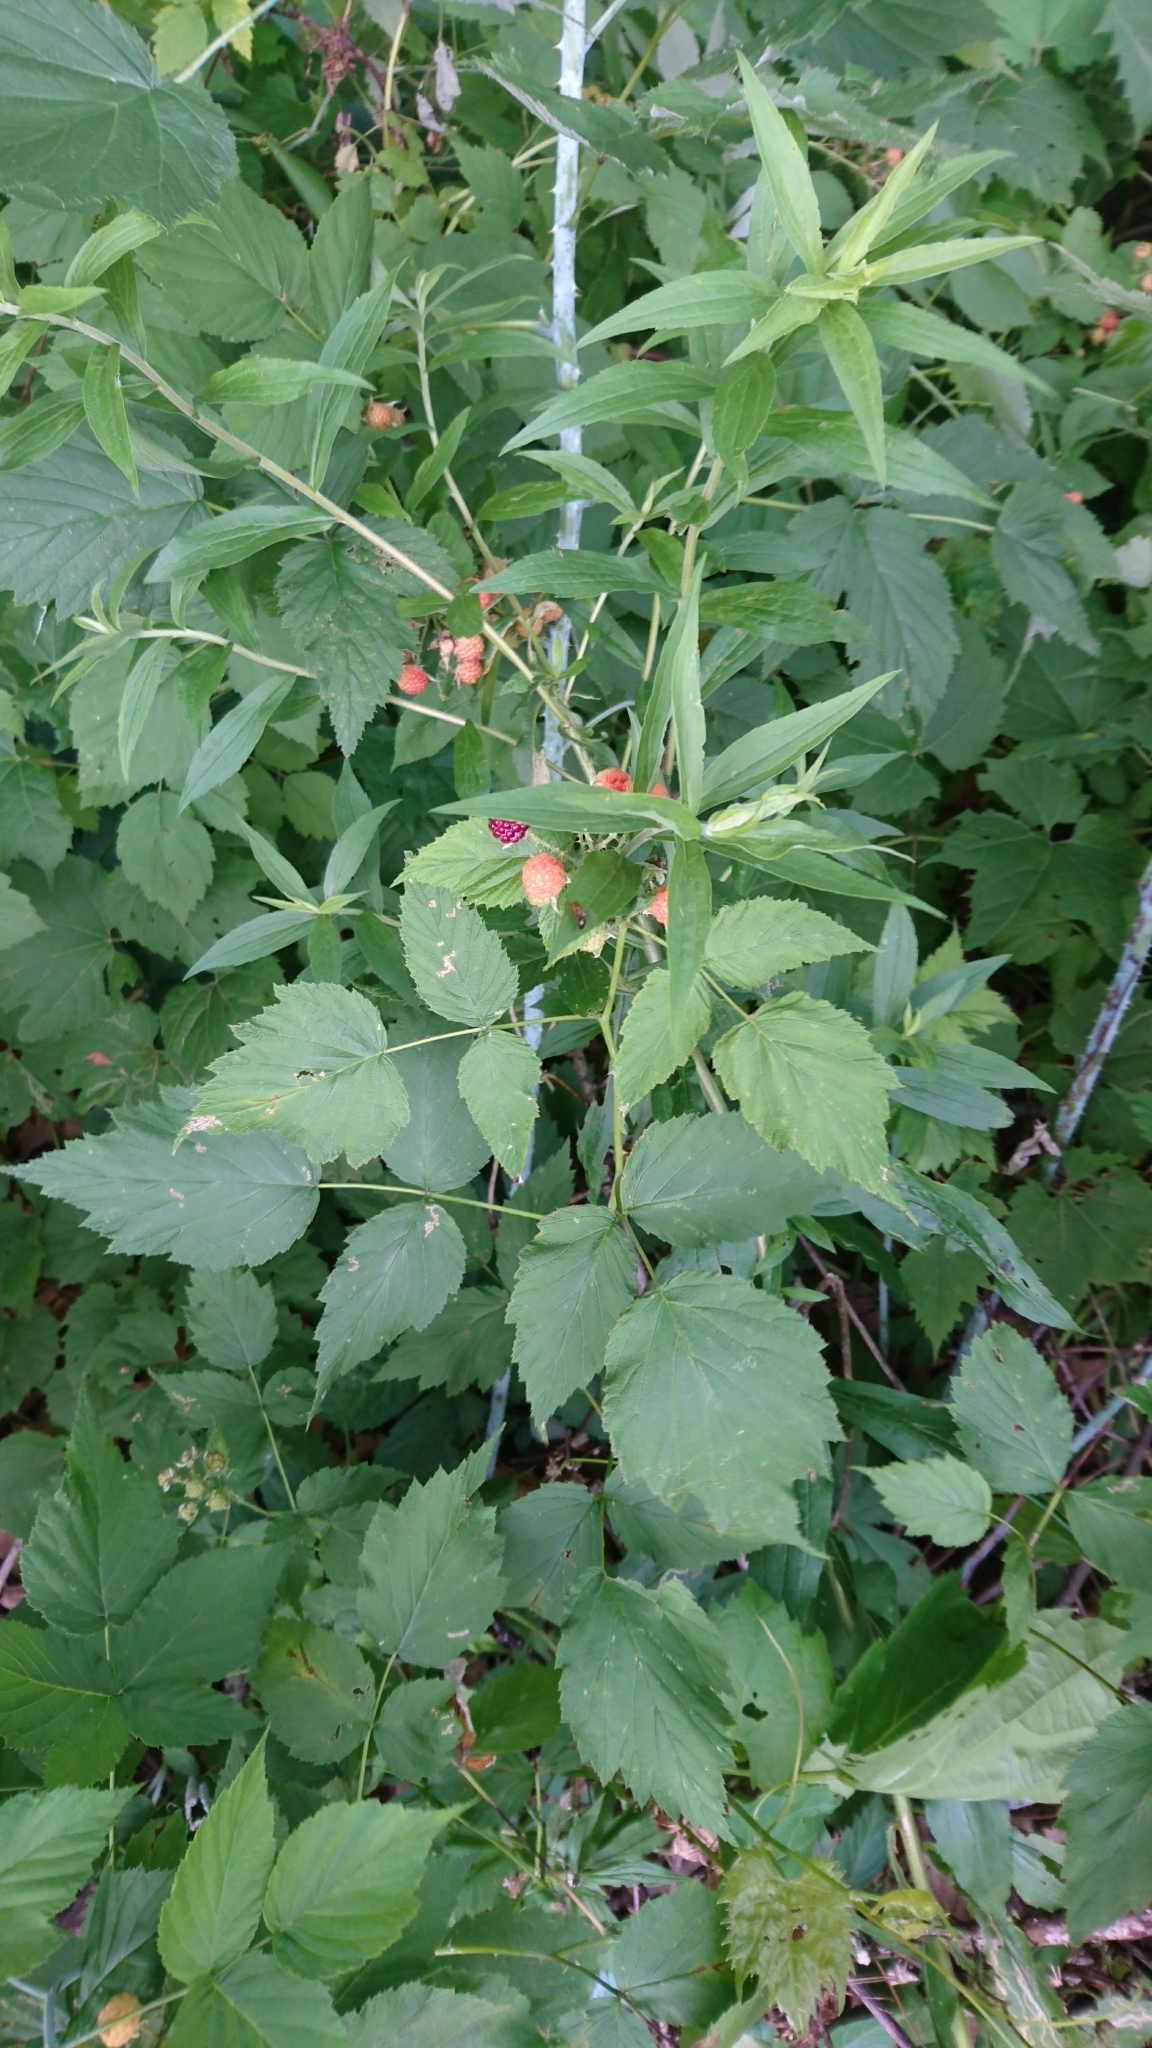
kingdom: Plantae
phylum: Tracheophyta
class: Magnoliopsida
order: Rosales
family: Rosaceae
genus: Rubus
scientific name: Rubus occidentalis
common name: Black raspberry
